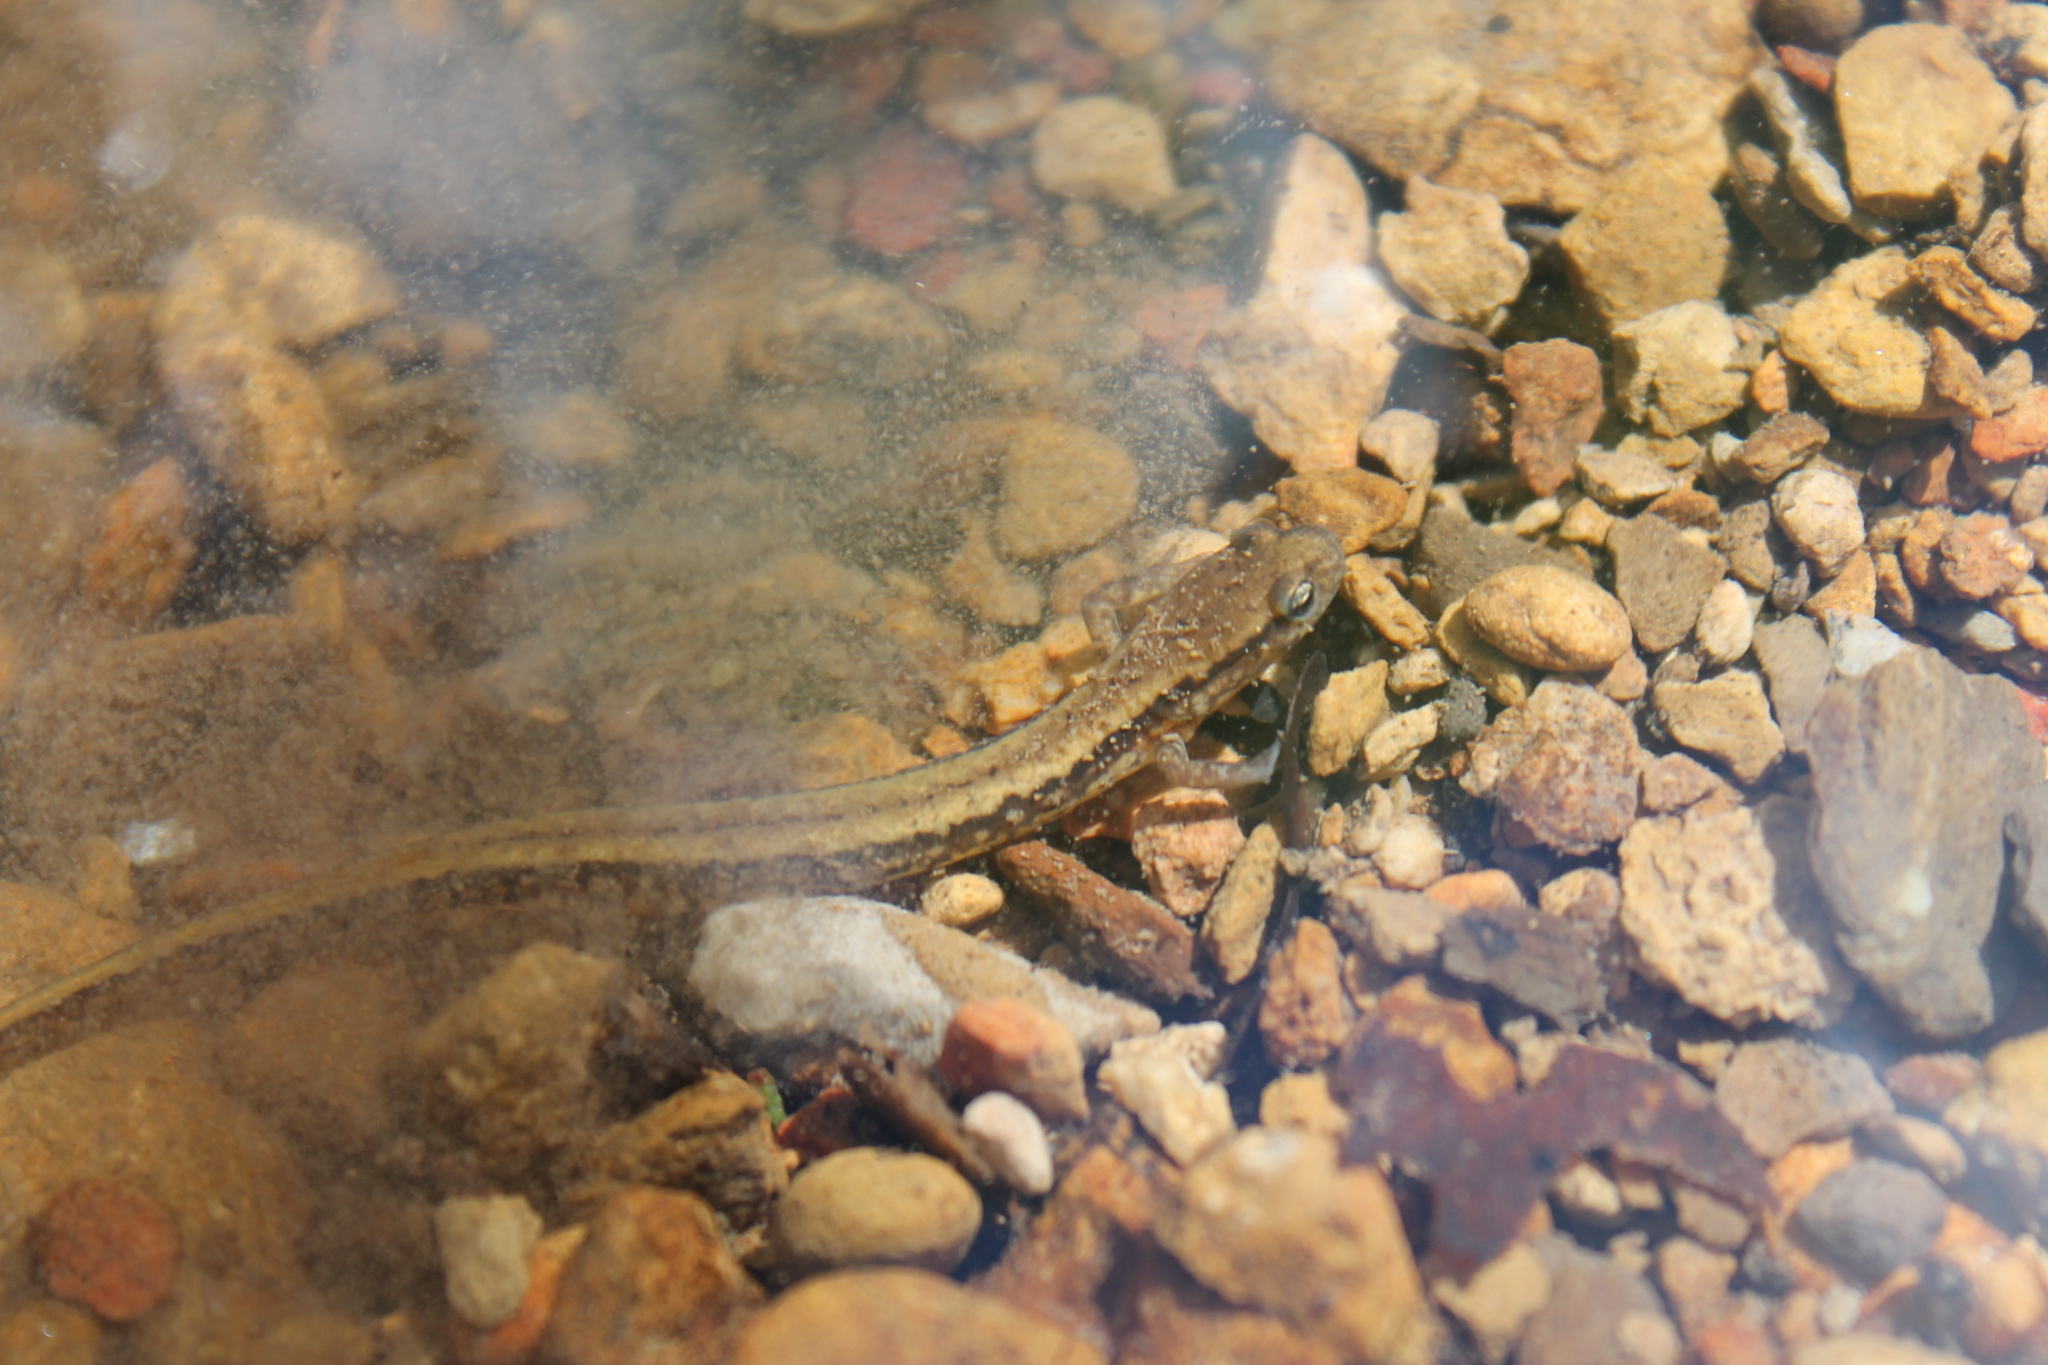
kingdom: Animalia
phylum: Chordata
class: Amphibia
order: Caudata
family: Plethodontidae
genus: Eurycea
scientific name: Eurycea cirrigera
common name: Southern two-lined salamander
